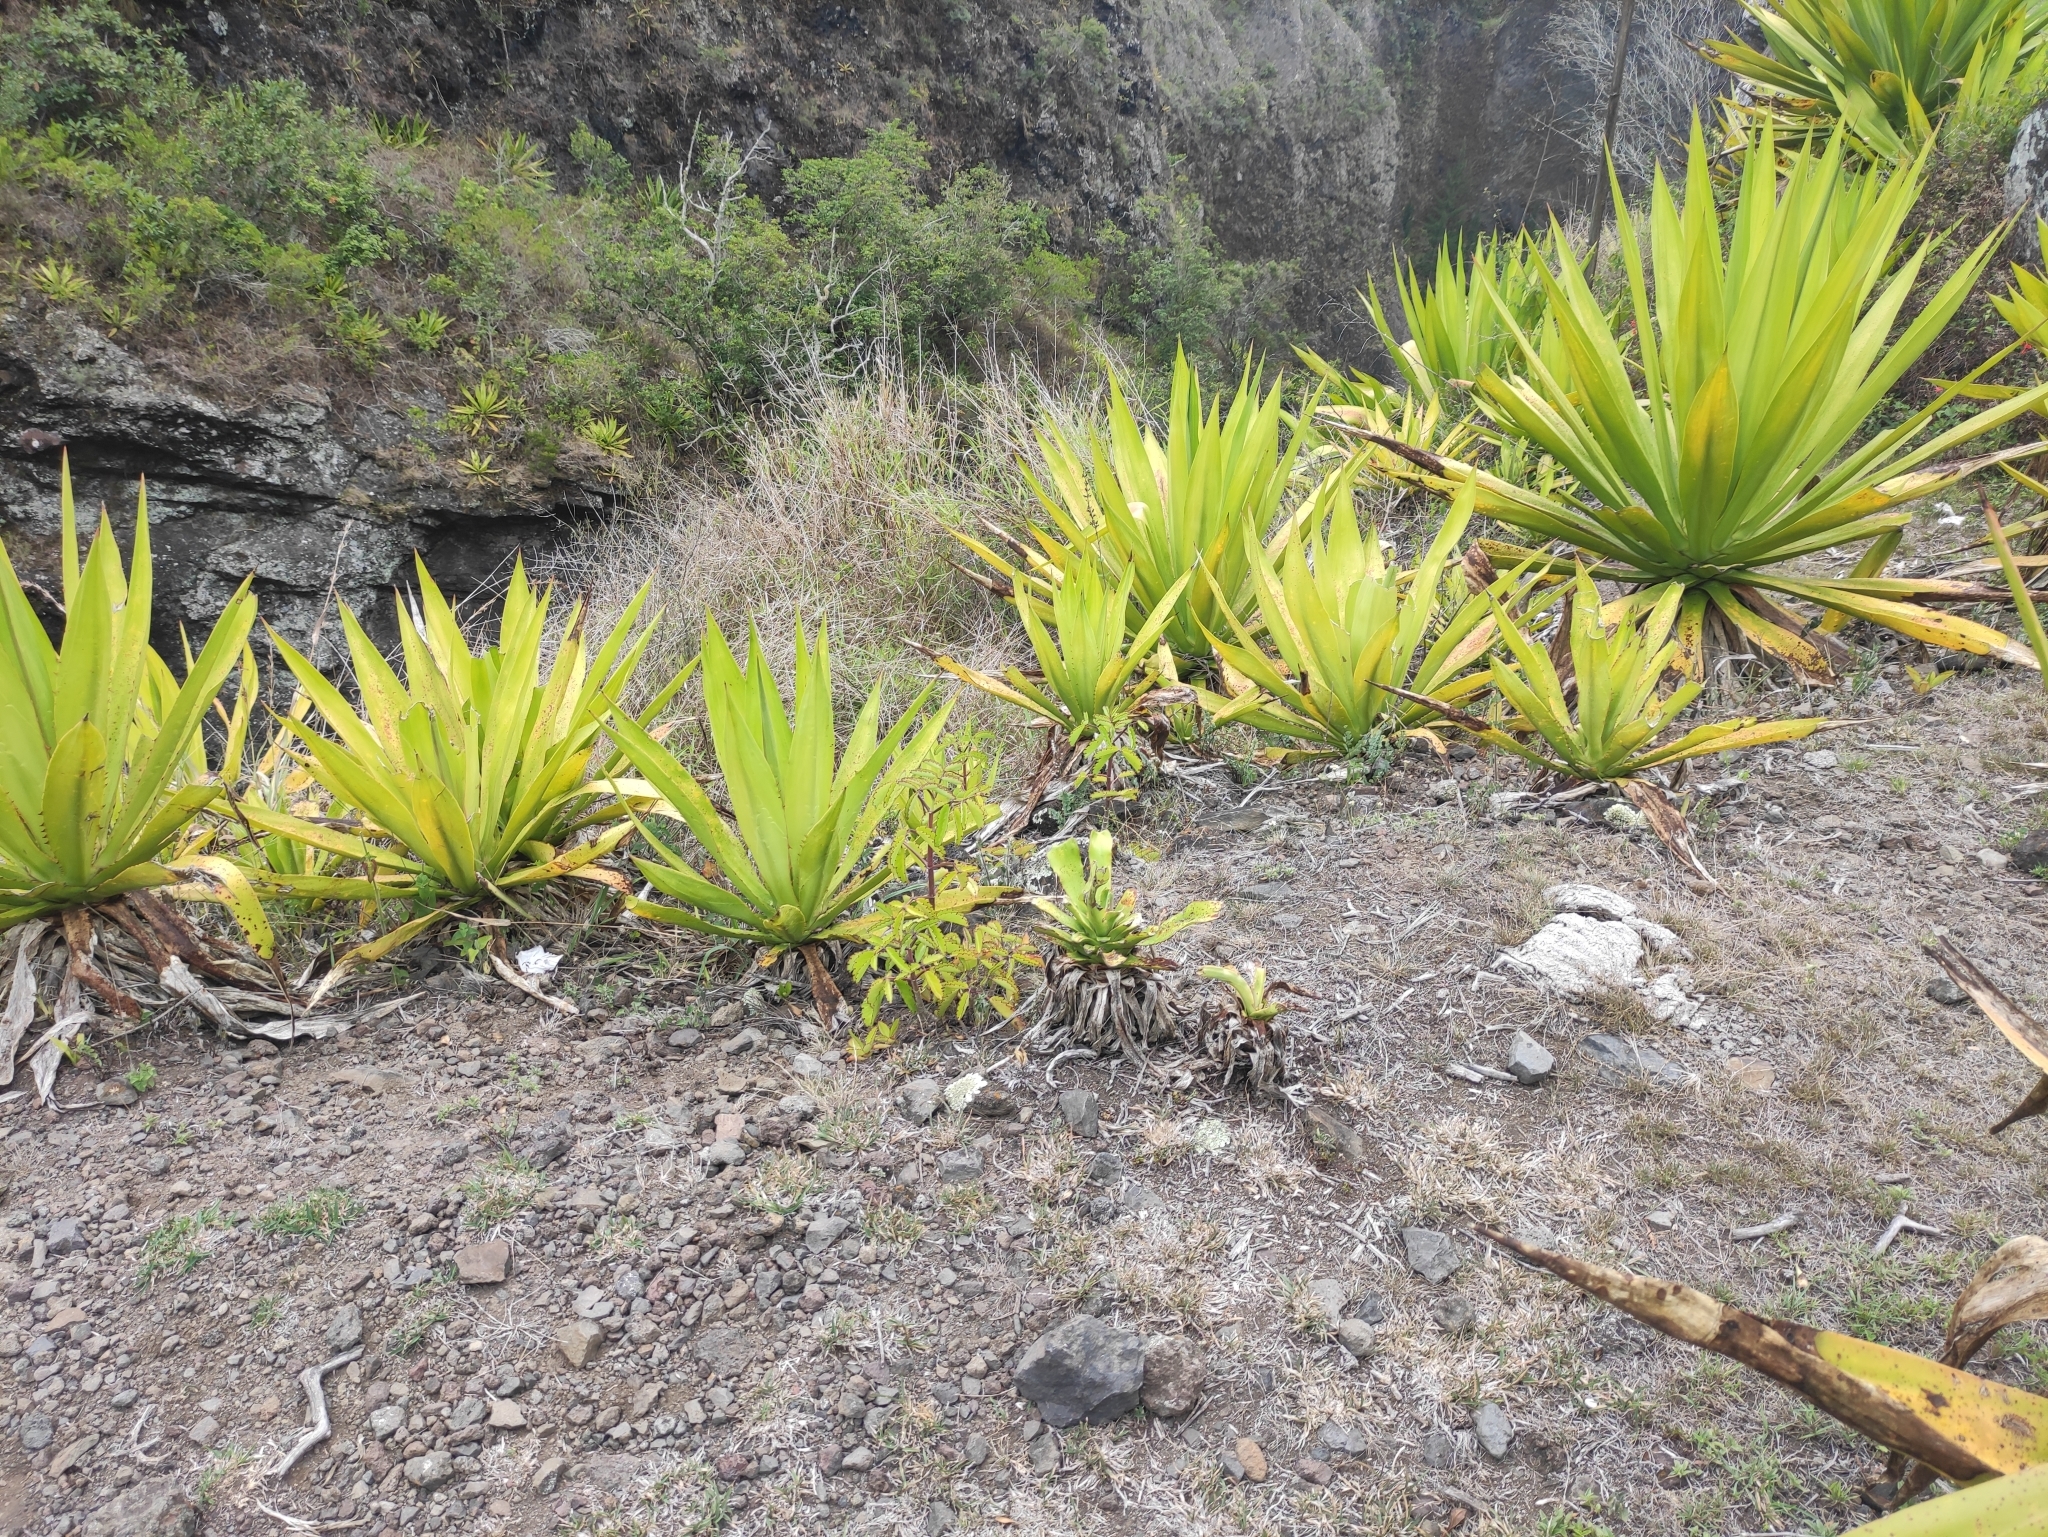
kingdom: Plantae
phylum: Tracheophyta
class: Magnoliopsida
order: Saxifragales
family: Crassulaceae
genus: Kalanchoe
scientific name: Kalanchoe pinnata
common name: Cathedral bells
